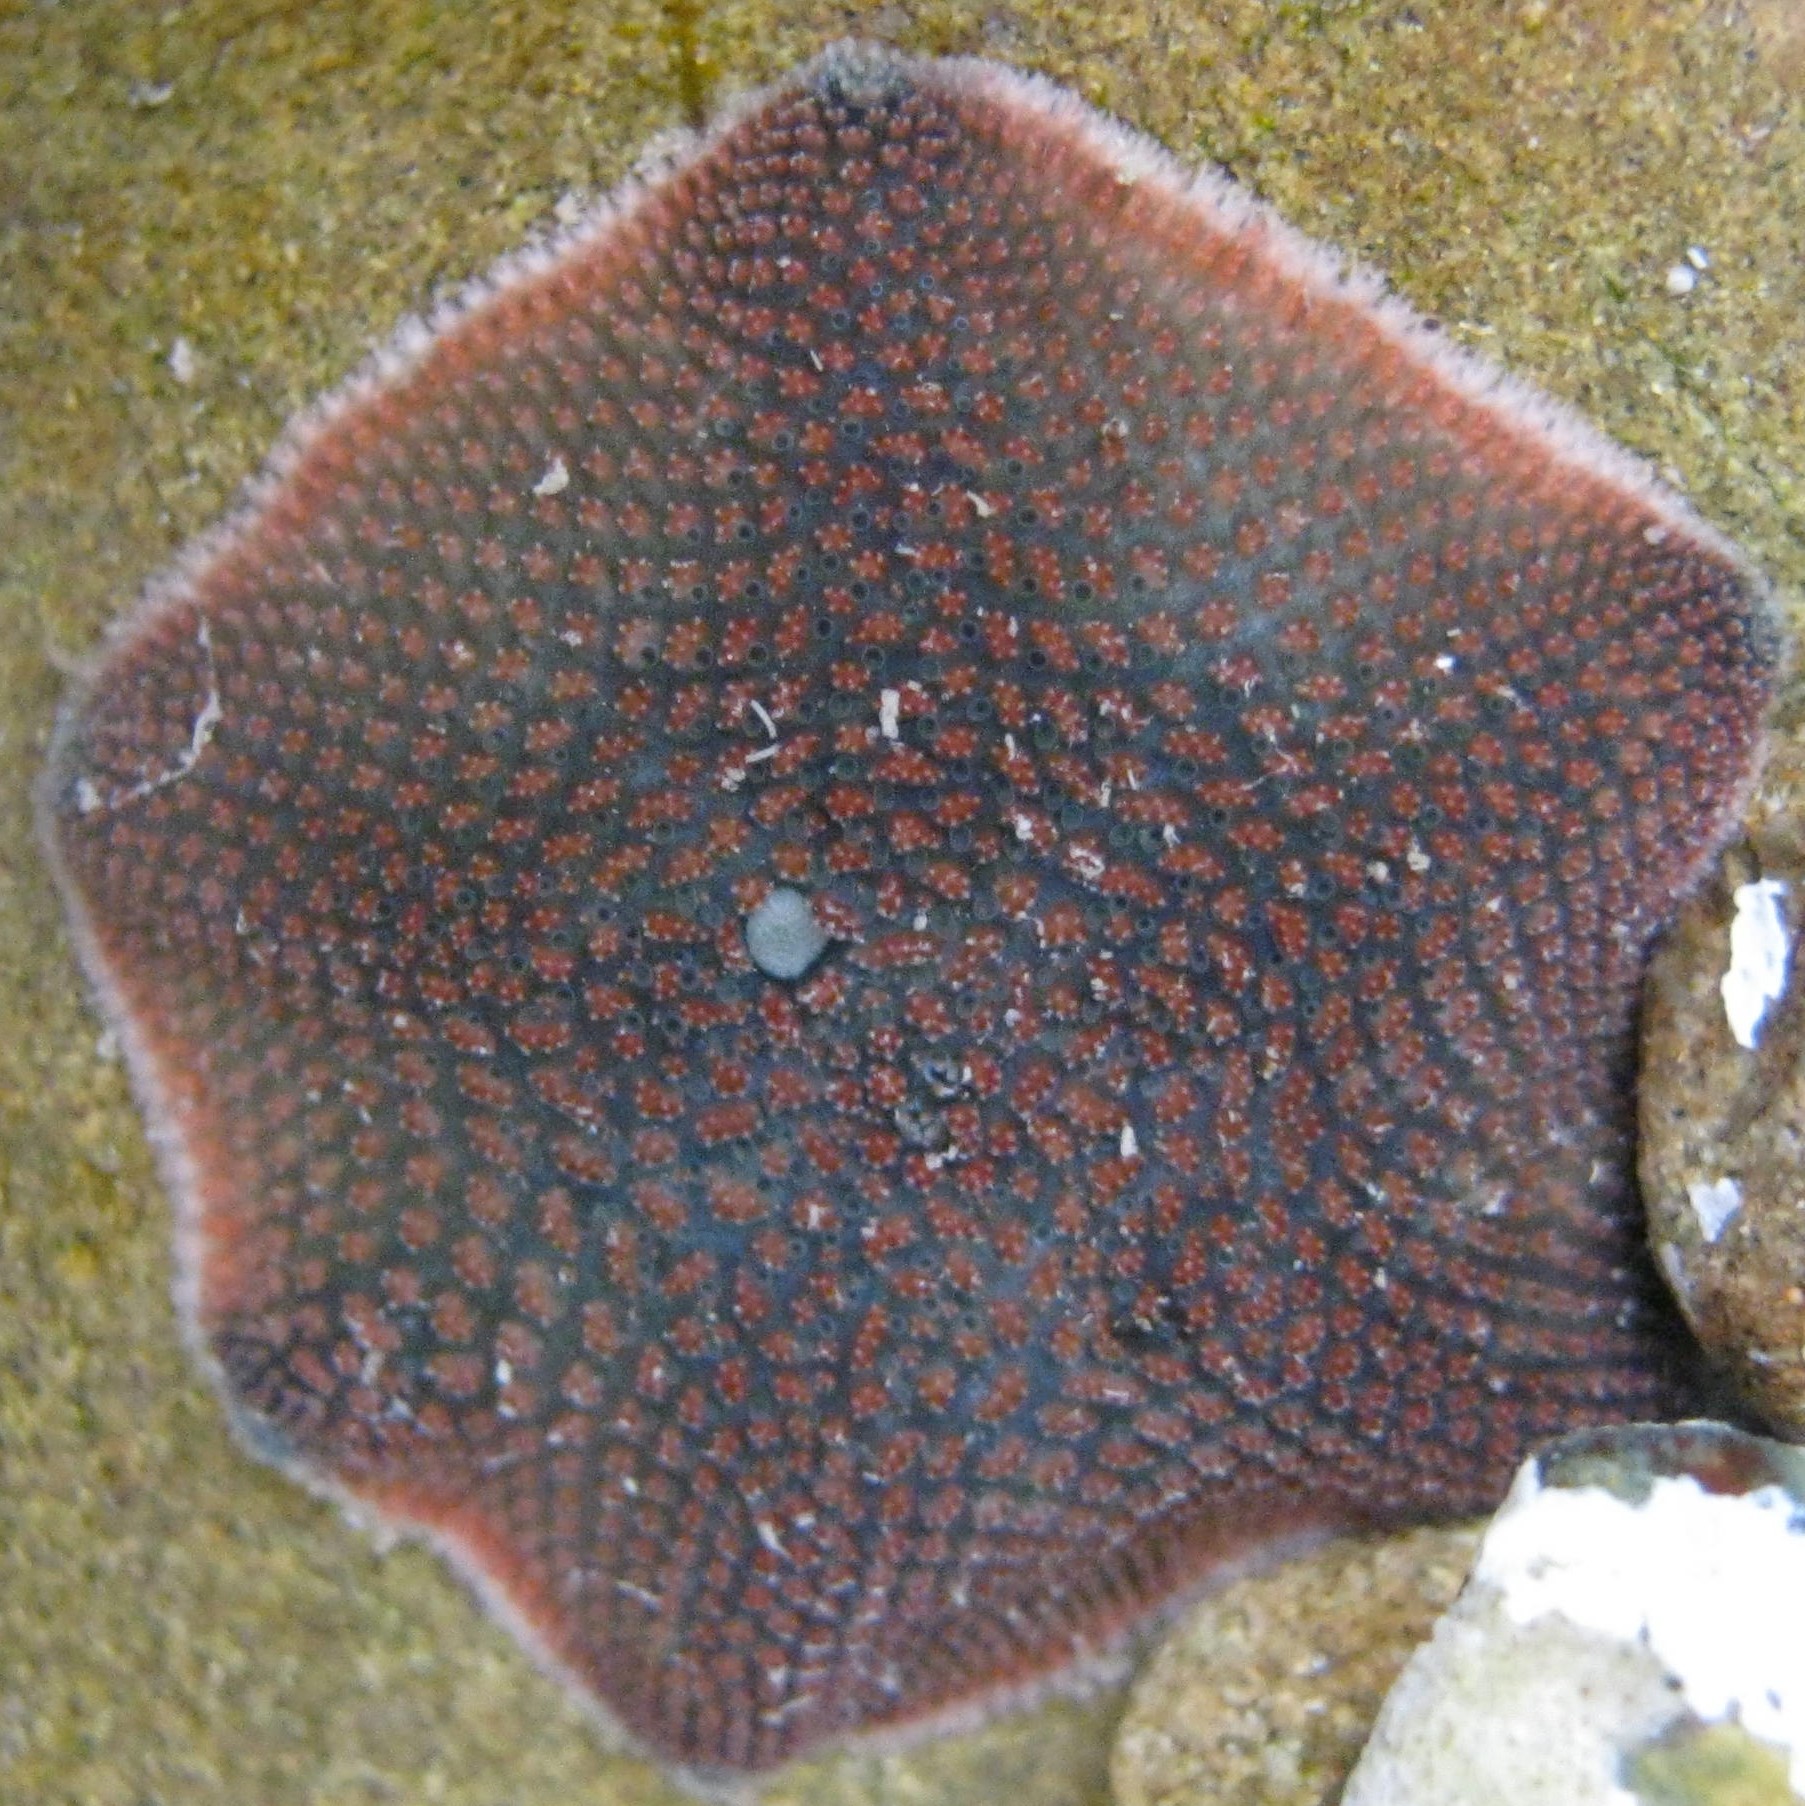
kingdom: Animalia
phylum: Echinodermata
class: Asteroidea
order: Valvatida
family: Asterinidae
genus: Patiriella
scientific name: Patiriella regularis
